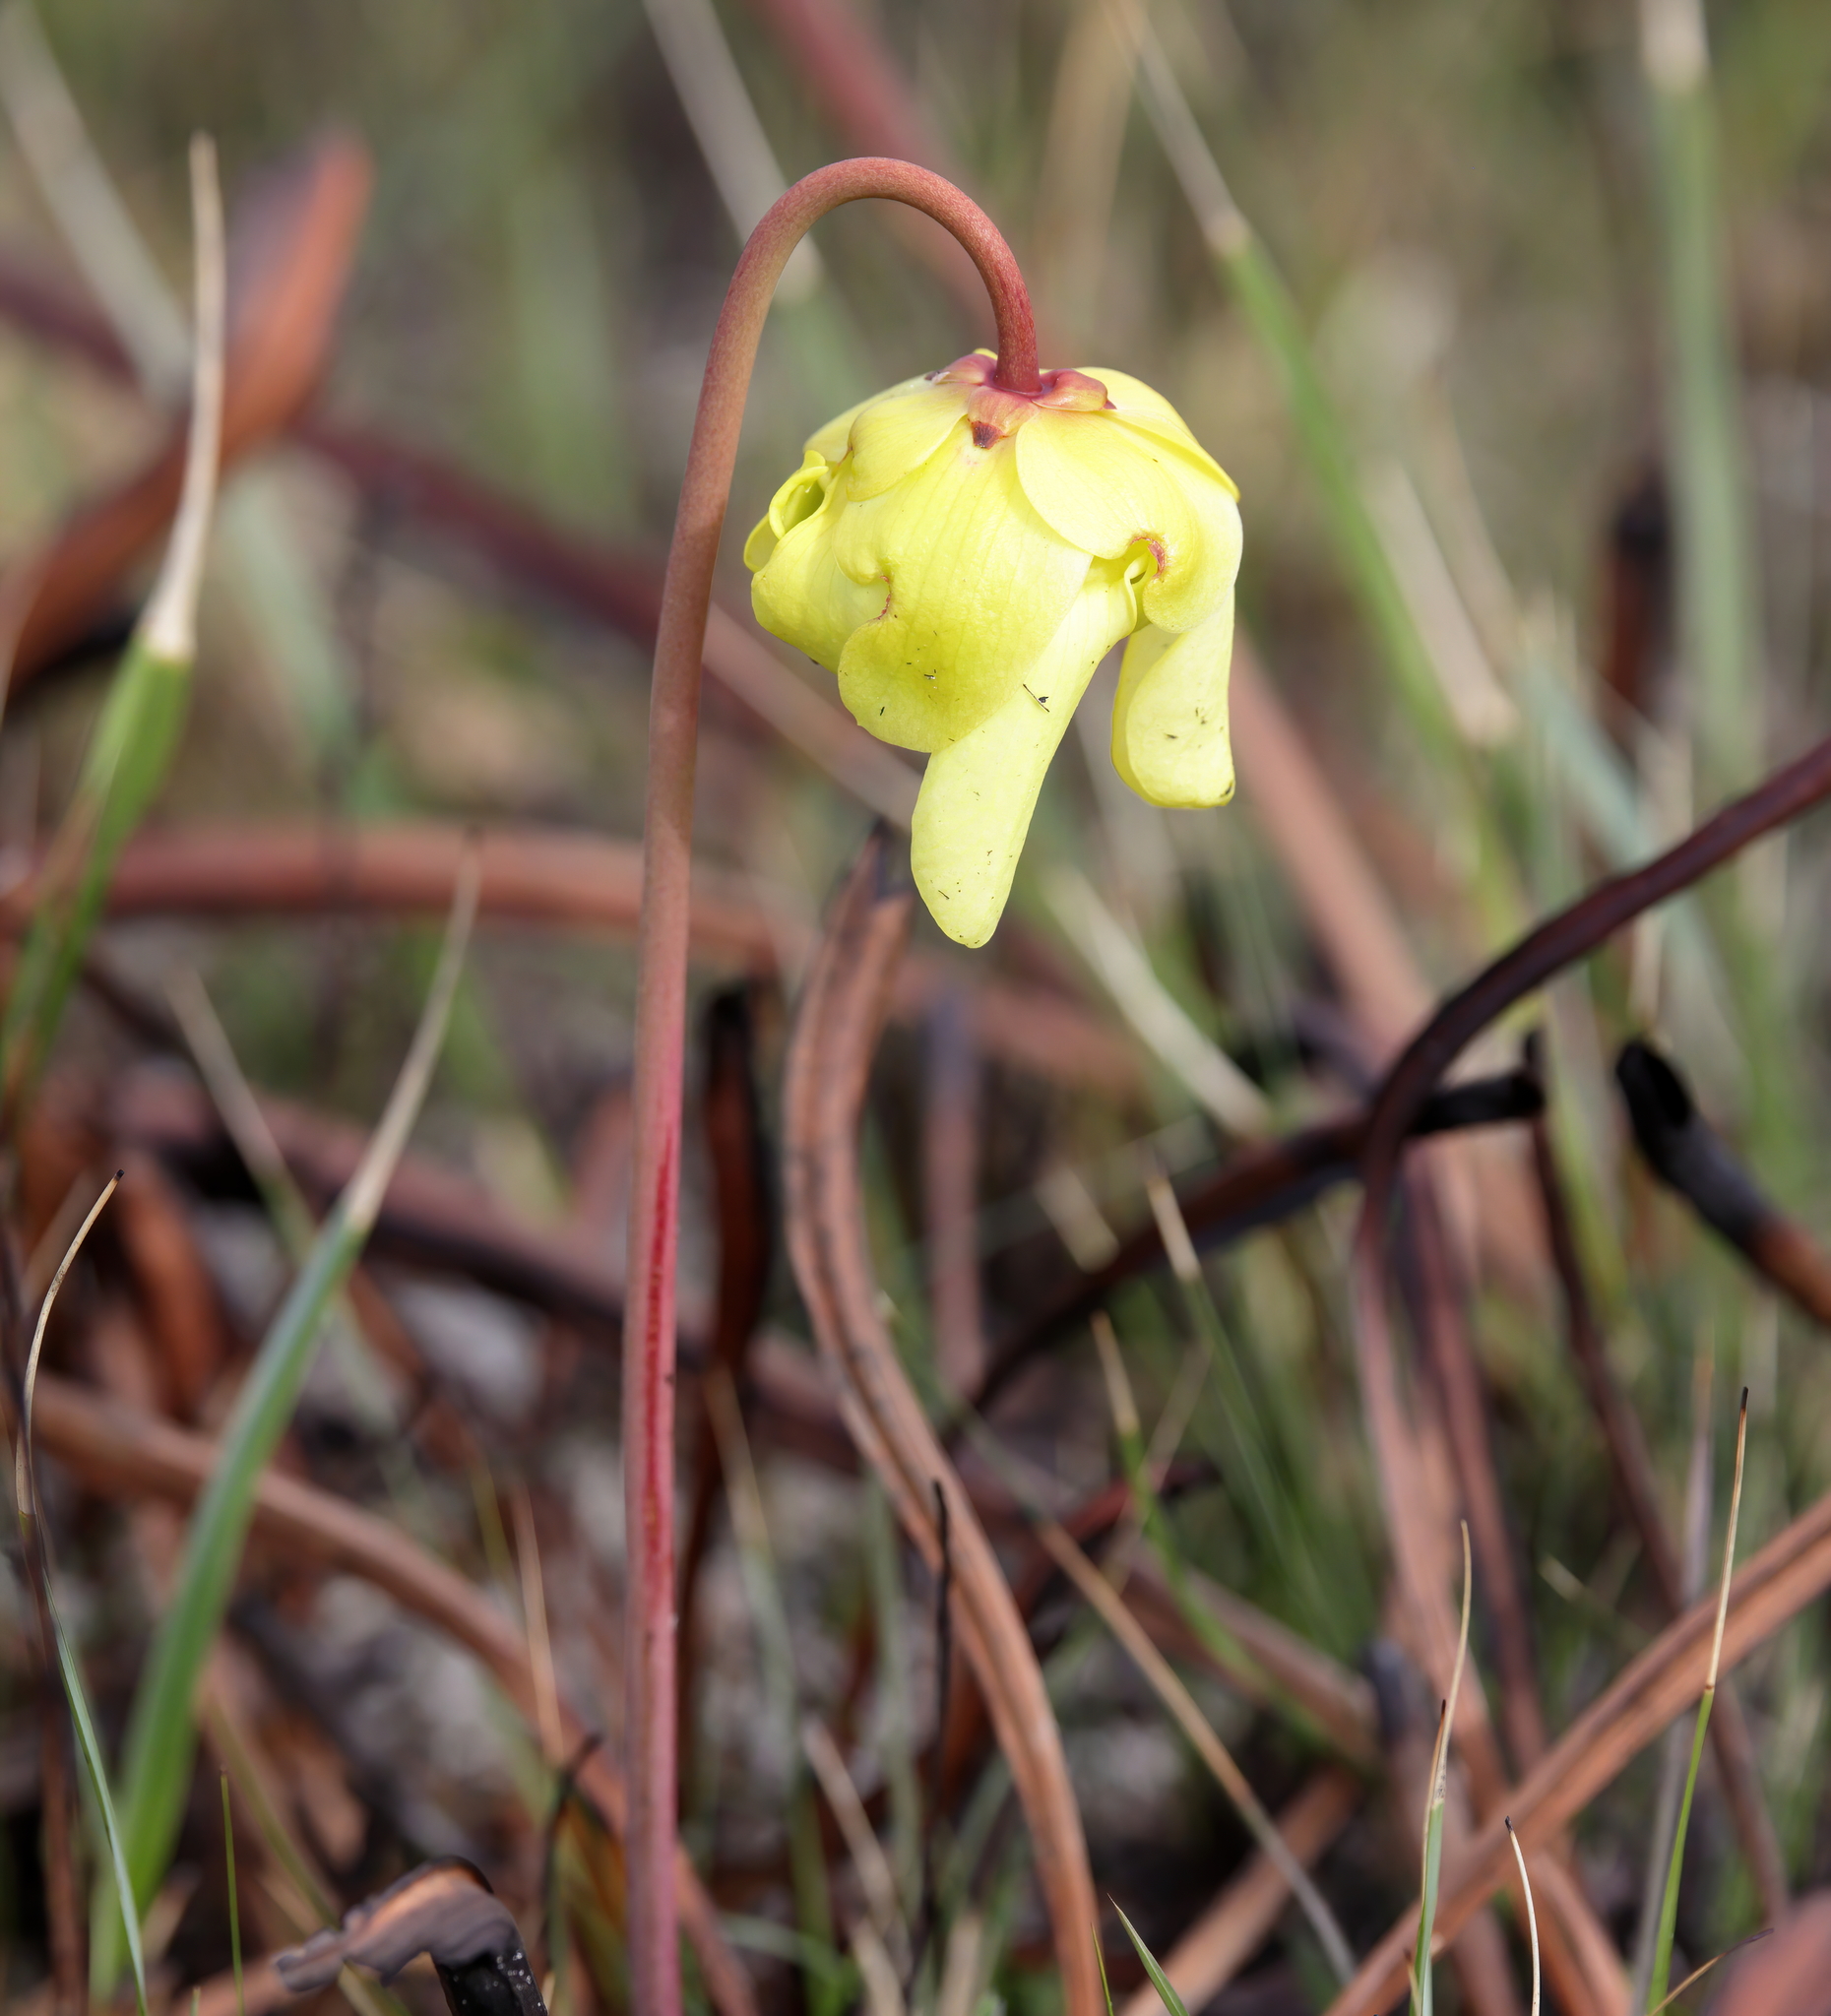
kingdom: Plantae
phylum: Tracheophyta
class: Magnoliopsida
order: Ericales
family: Sarraceniaceae
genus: Sarracenia
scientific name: Sarracenia alata
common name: Yellow trumpets
